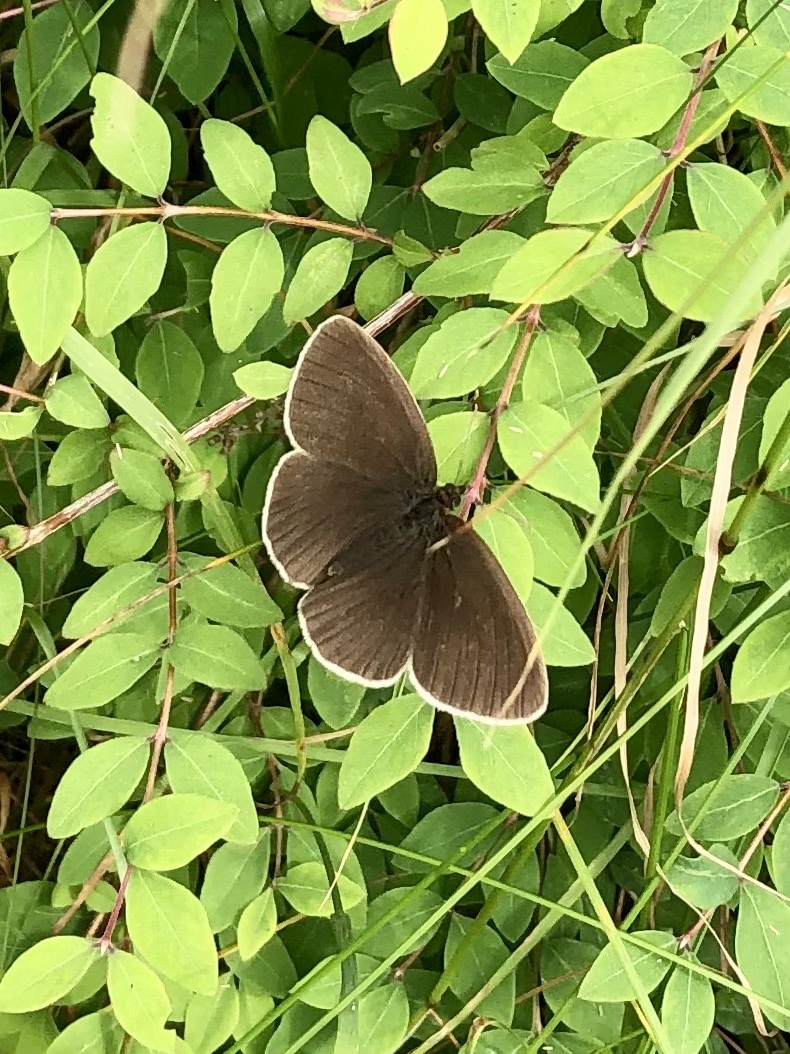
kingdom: Animalia
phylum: Arthropoda
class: Insecta
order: Lepidoptera
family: Nymphalidae
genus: Aphantopus
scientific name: Aphantopus hyperantus
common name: Ringlet
